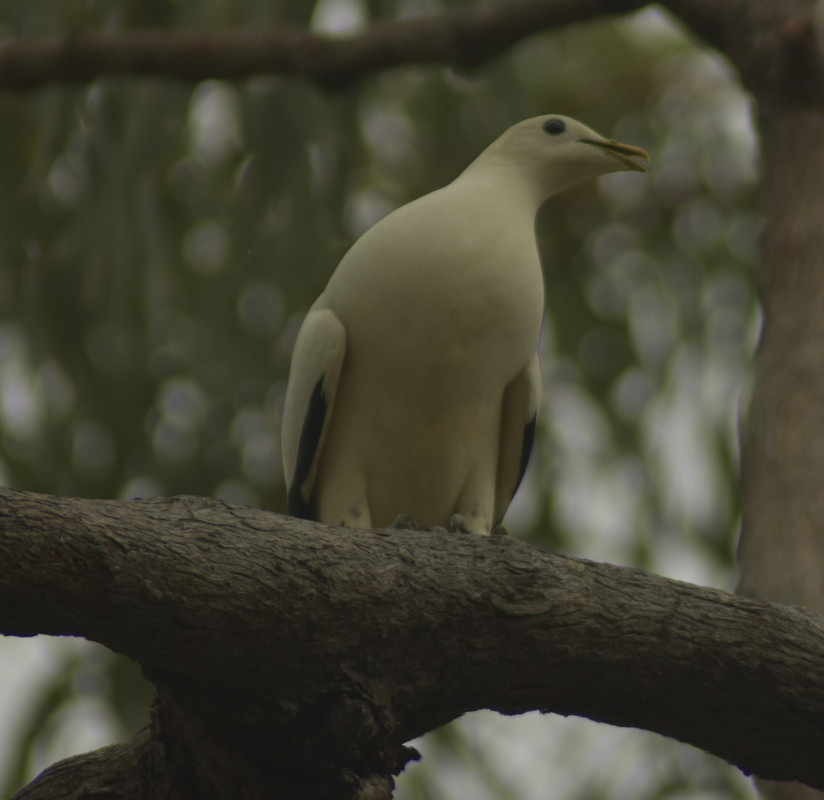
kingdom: Animalia
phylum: Chordata
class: Aves
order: Columbiformes
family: Columbidae
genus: Ducula
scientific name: Ducula spilorrhoa
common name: Torresian imperial pigeon
